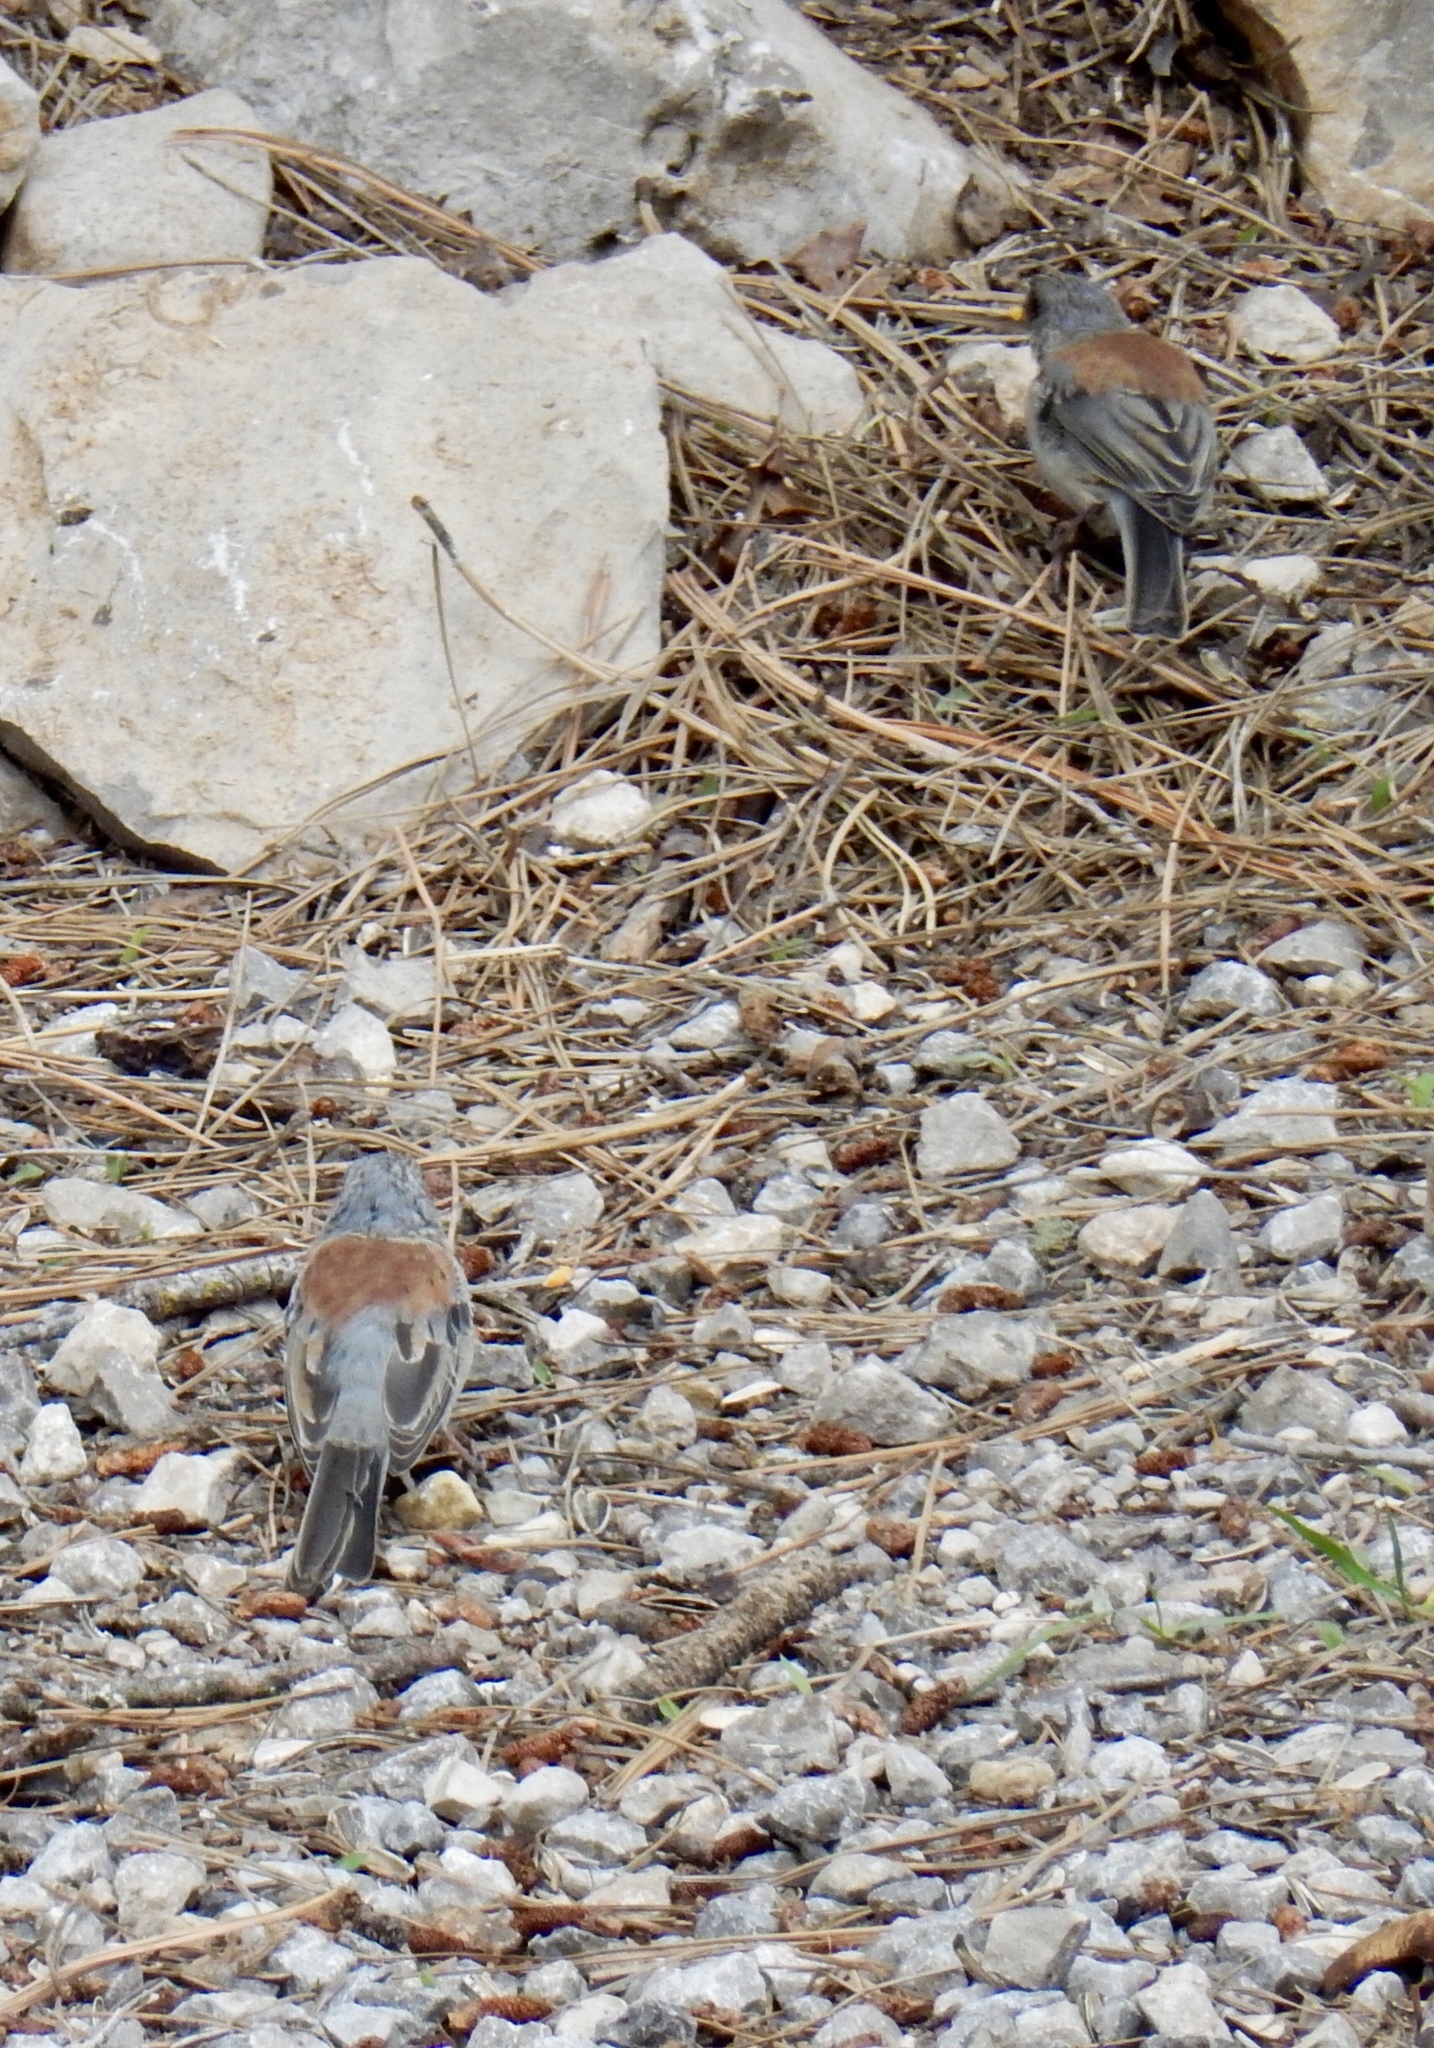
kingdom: Animalia
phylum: Chordata
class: Aves
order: Passeriformes
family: Passerellidae
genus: Junco
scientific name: Junco hyemalis
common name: Dark-eyed junco
